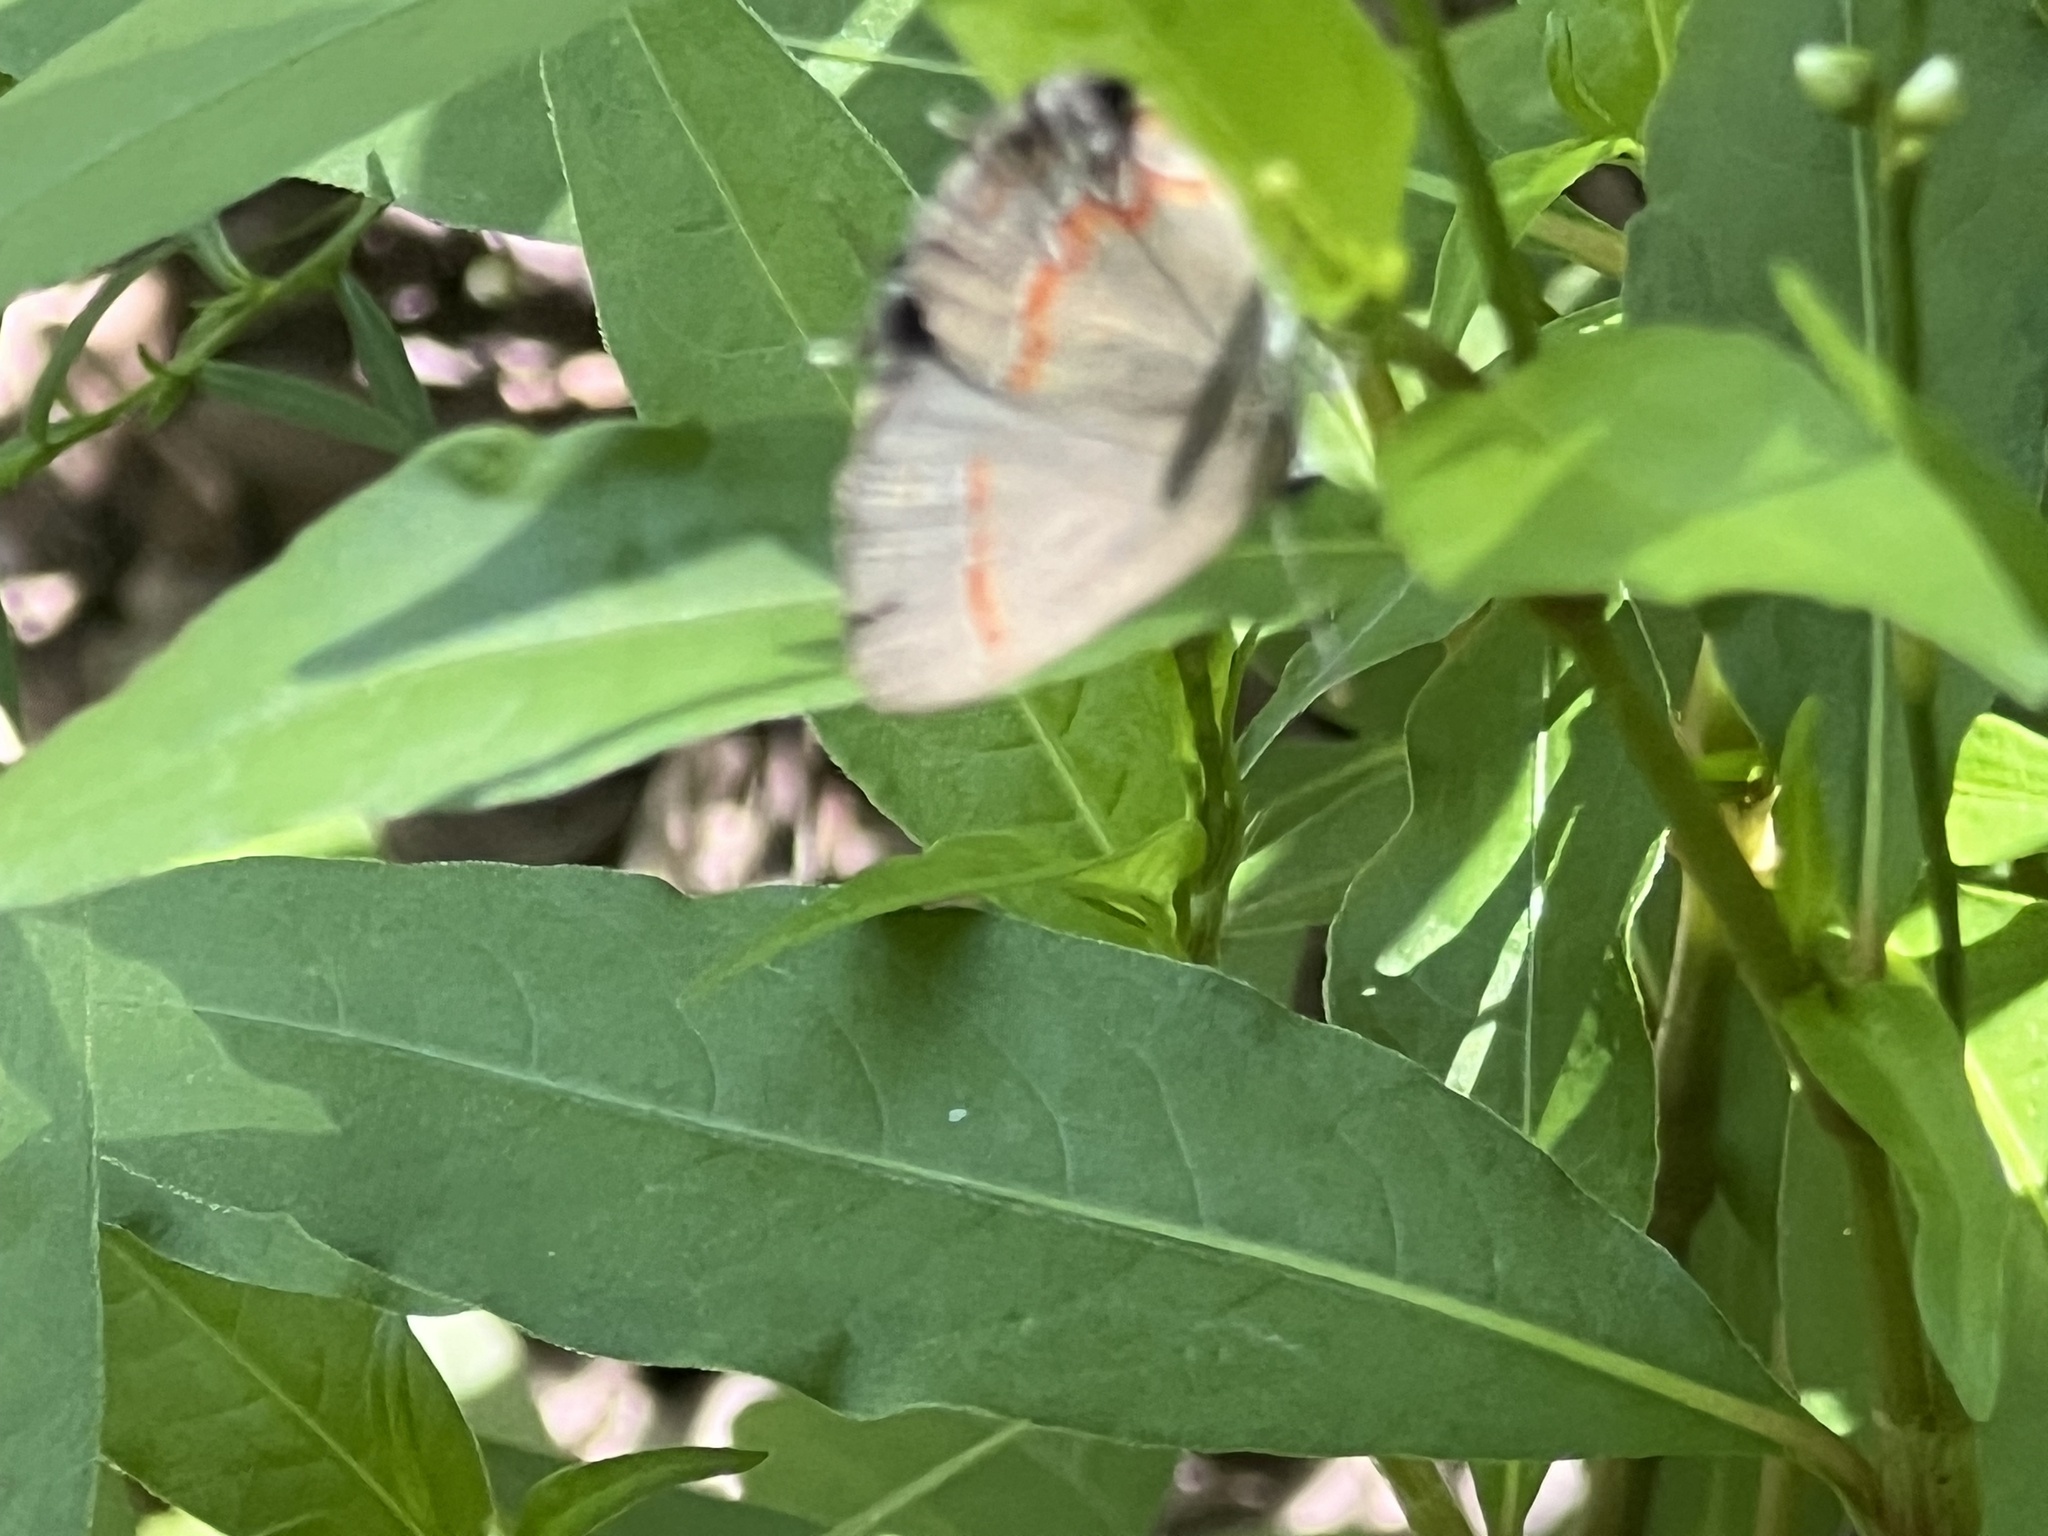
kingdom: Animalia
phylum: Arthropoda
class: Insecta
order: Lepidoptera
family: Lycaenidae
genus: Calycopis
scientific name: Calycopis cecrops
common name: Red-banded hairstreak
